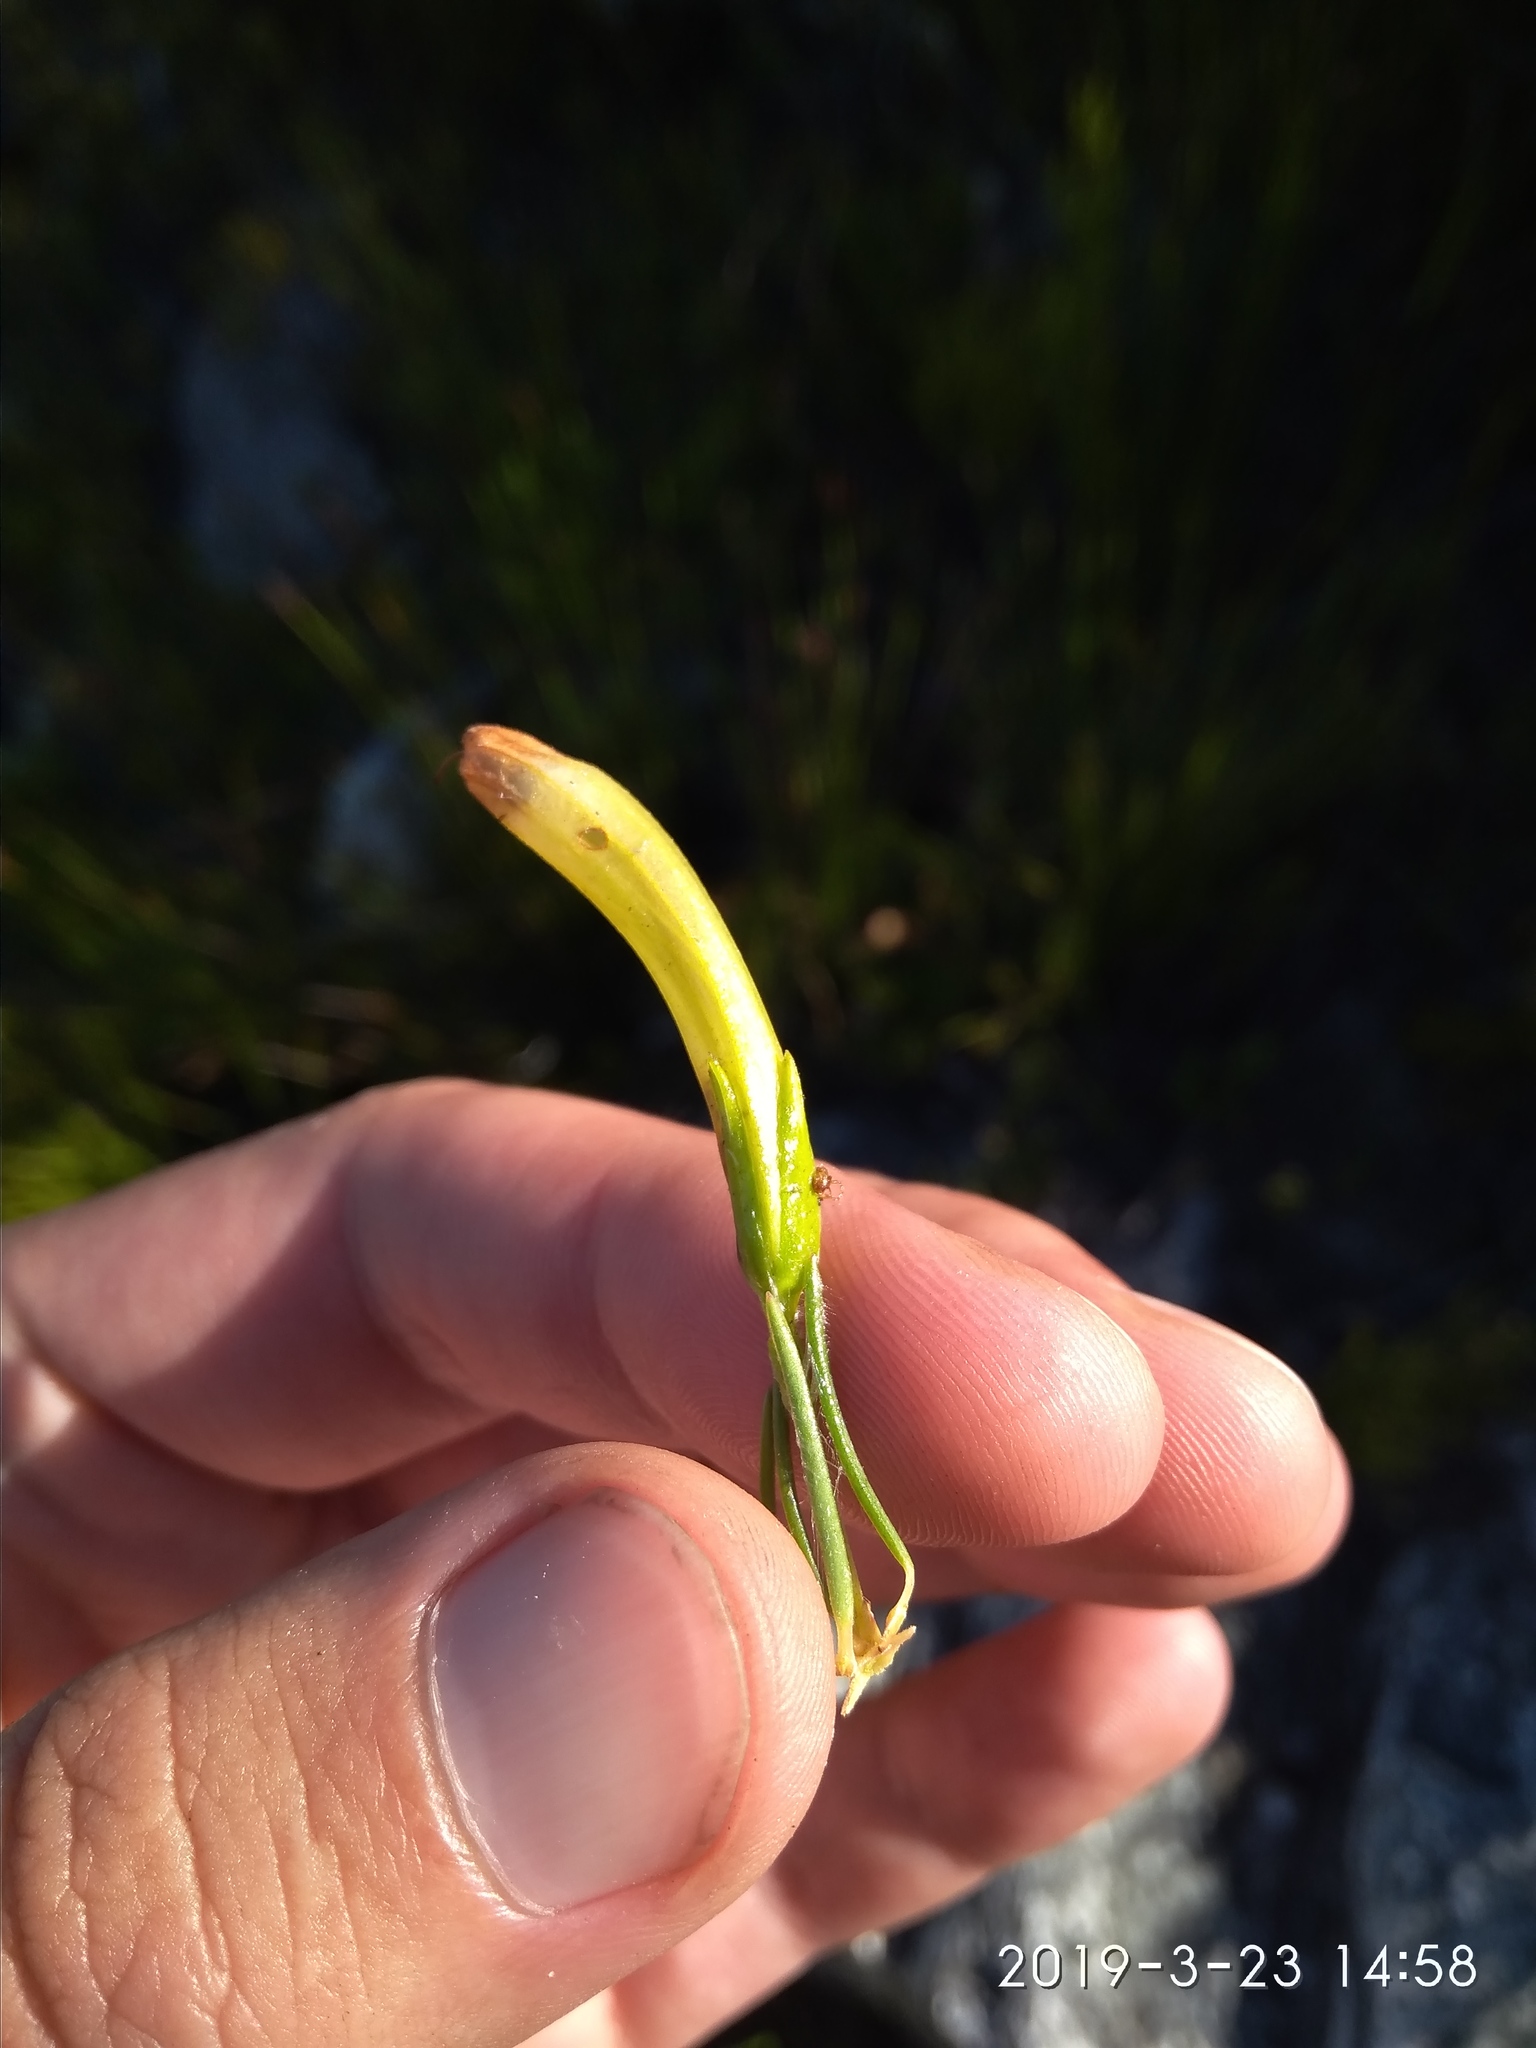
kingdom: Plantae
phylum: Tracheophyta
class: Magnoliopsida
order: Ericales
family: Ericaceae
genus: Erica
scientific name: Erica thomae
